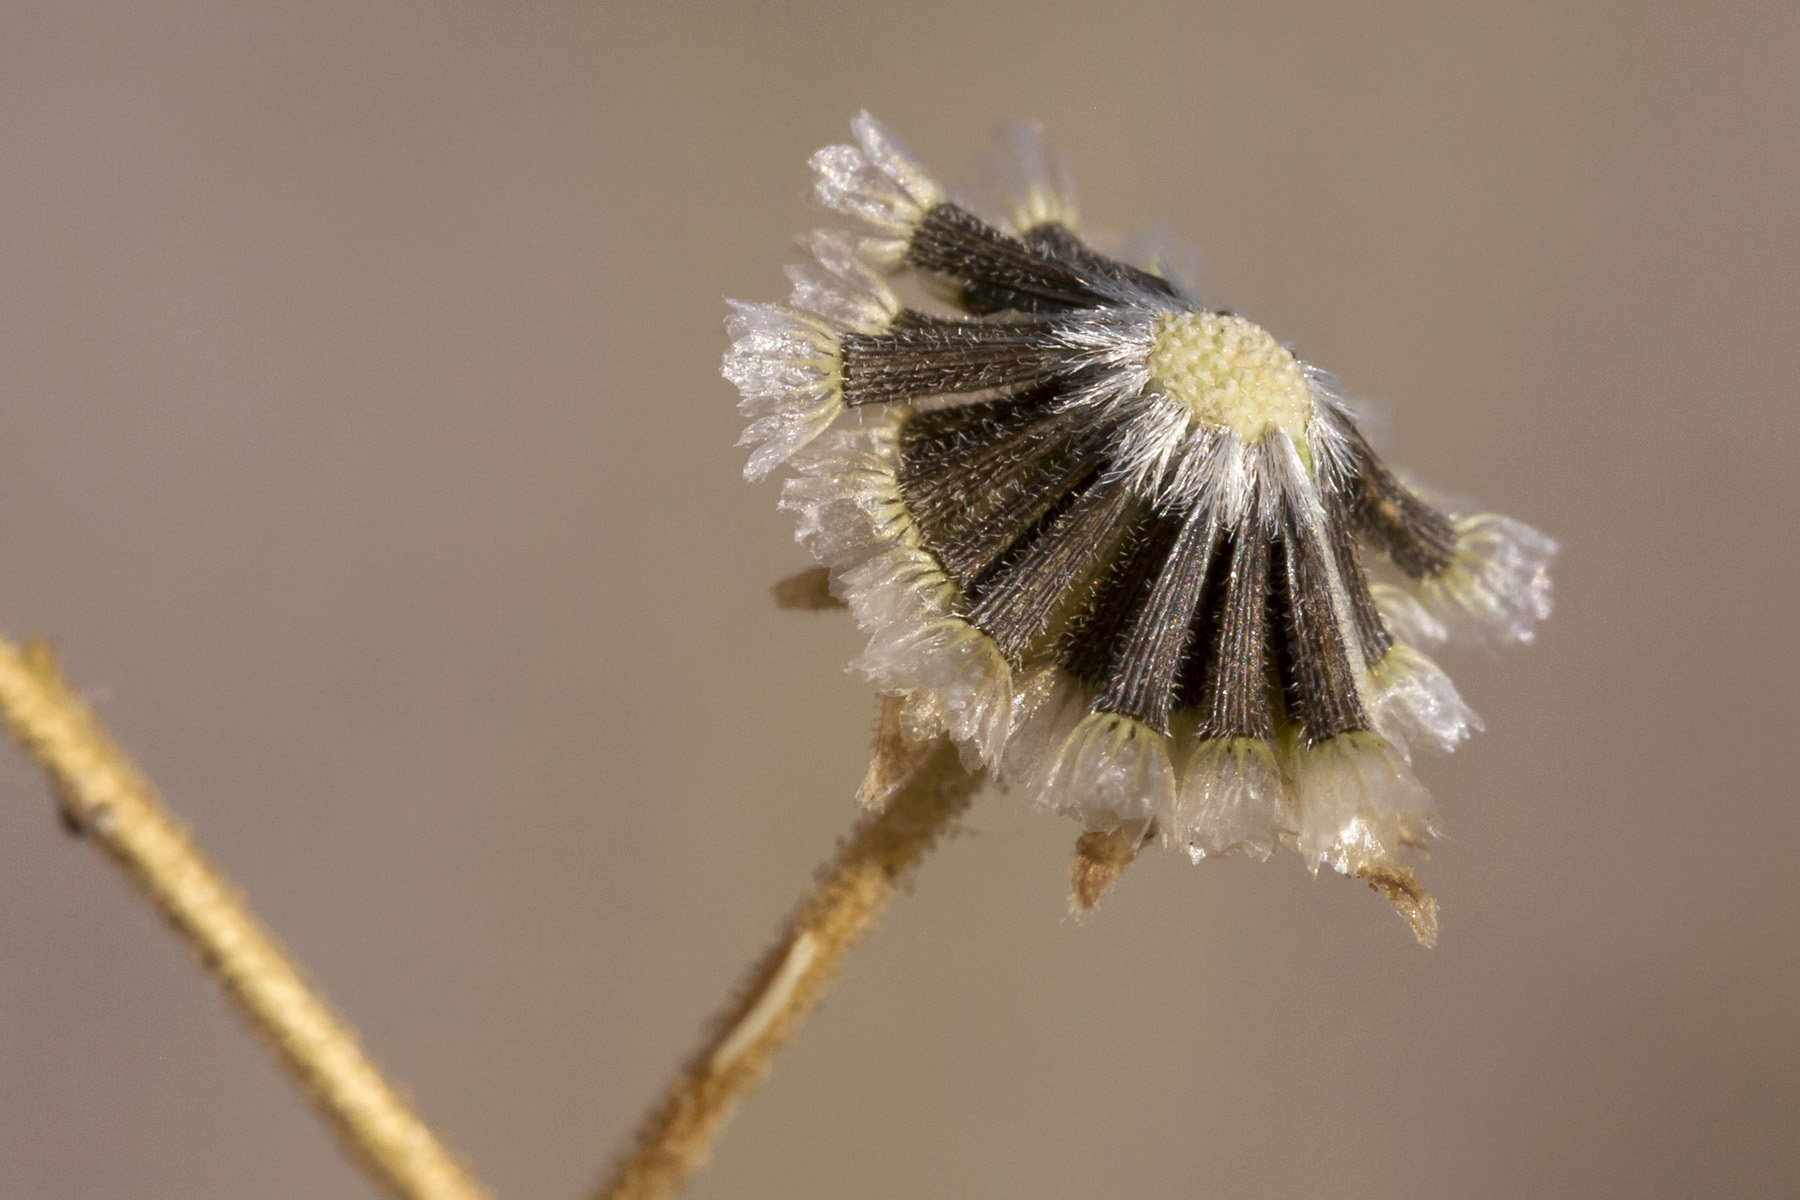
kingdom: Plantae
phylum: Tracheophyta
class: Magnoliopsida
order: Asterales
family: Asteraceae
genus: Hymenothrix
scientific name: Hymenothrix pedata
